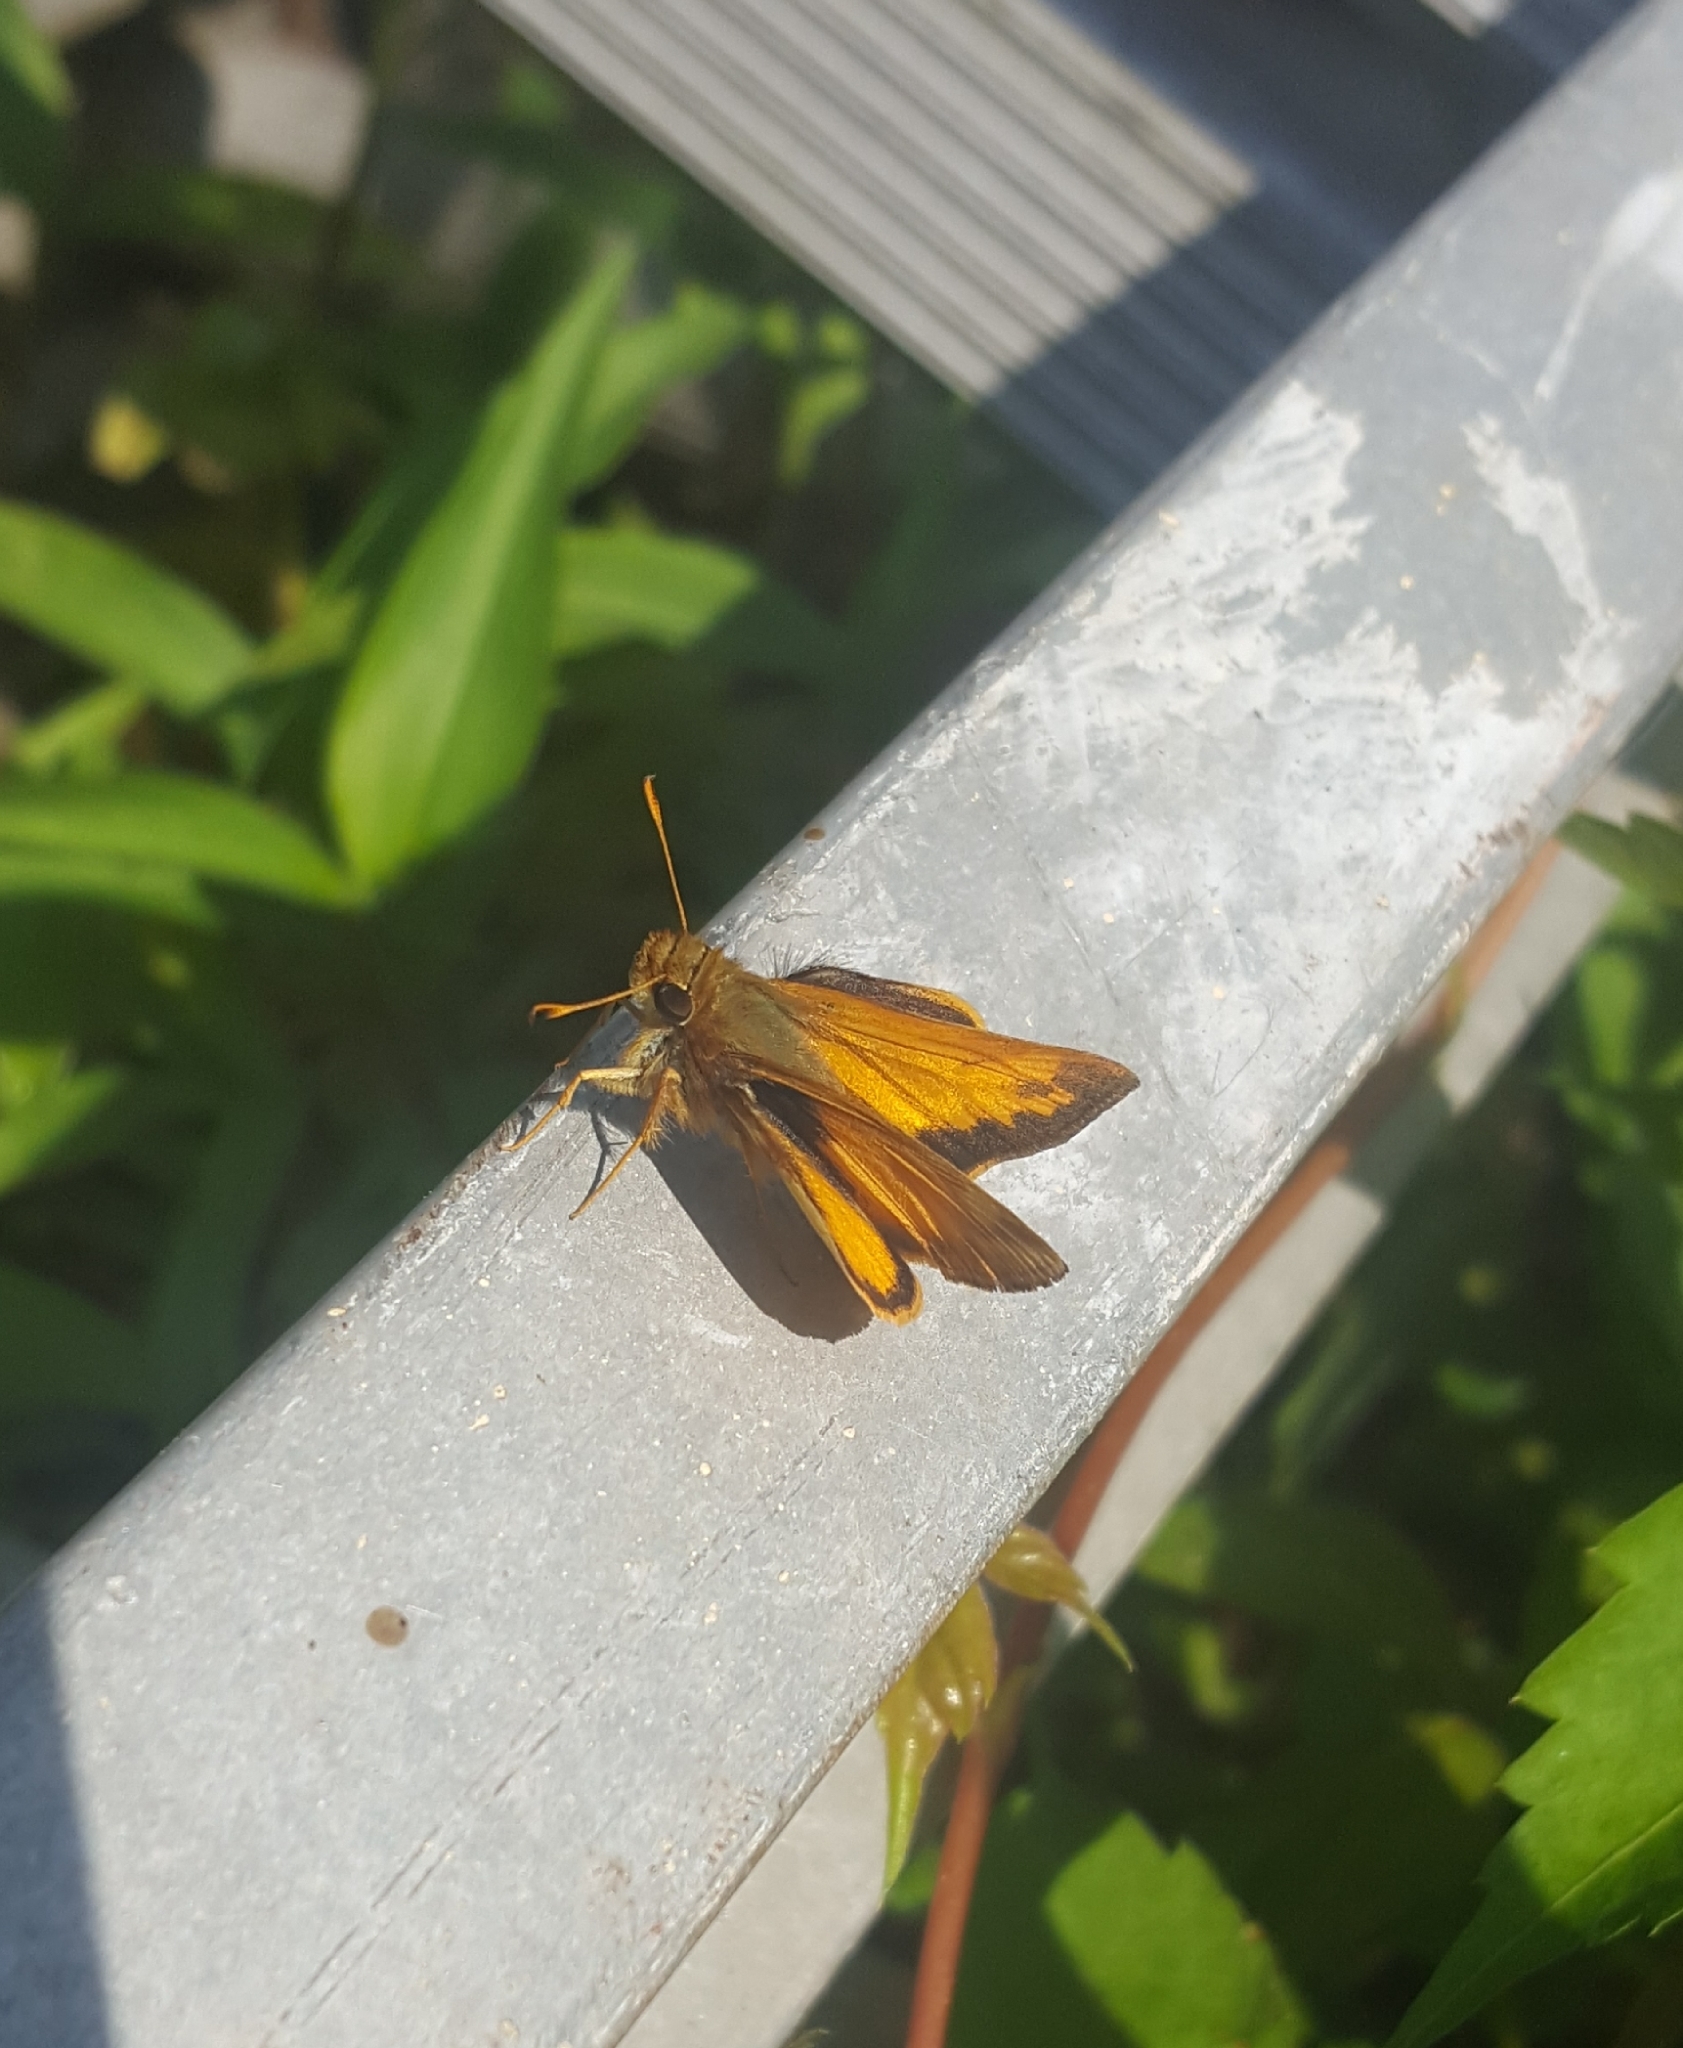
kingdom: Animalia
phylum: Arthropoda
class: Insecta
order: Lepidoptera
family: Hesperiidae
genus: Lon
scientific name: Lon zabulon
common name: Zabulon skipper
